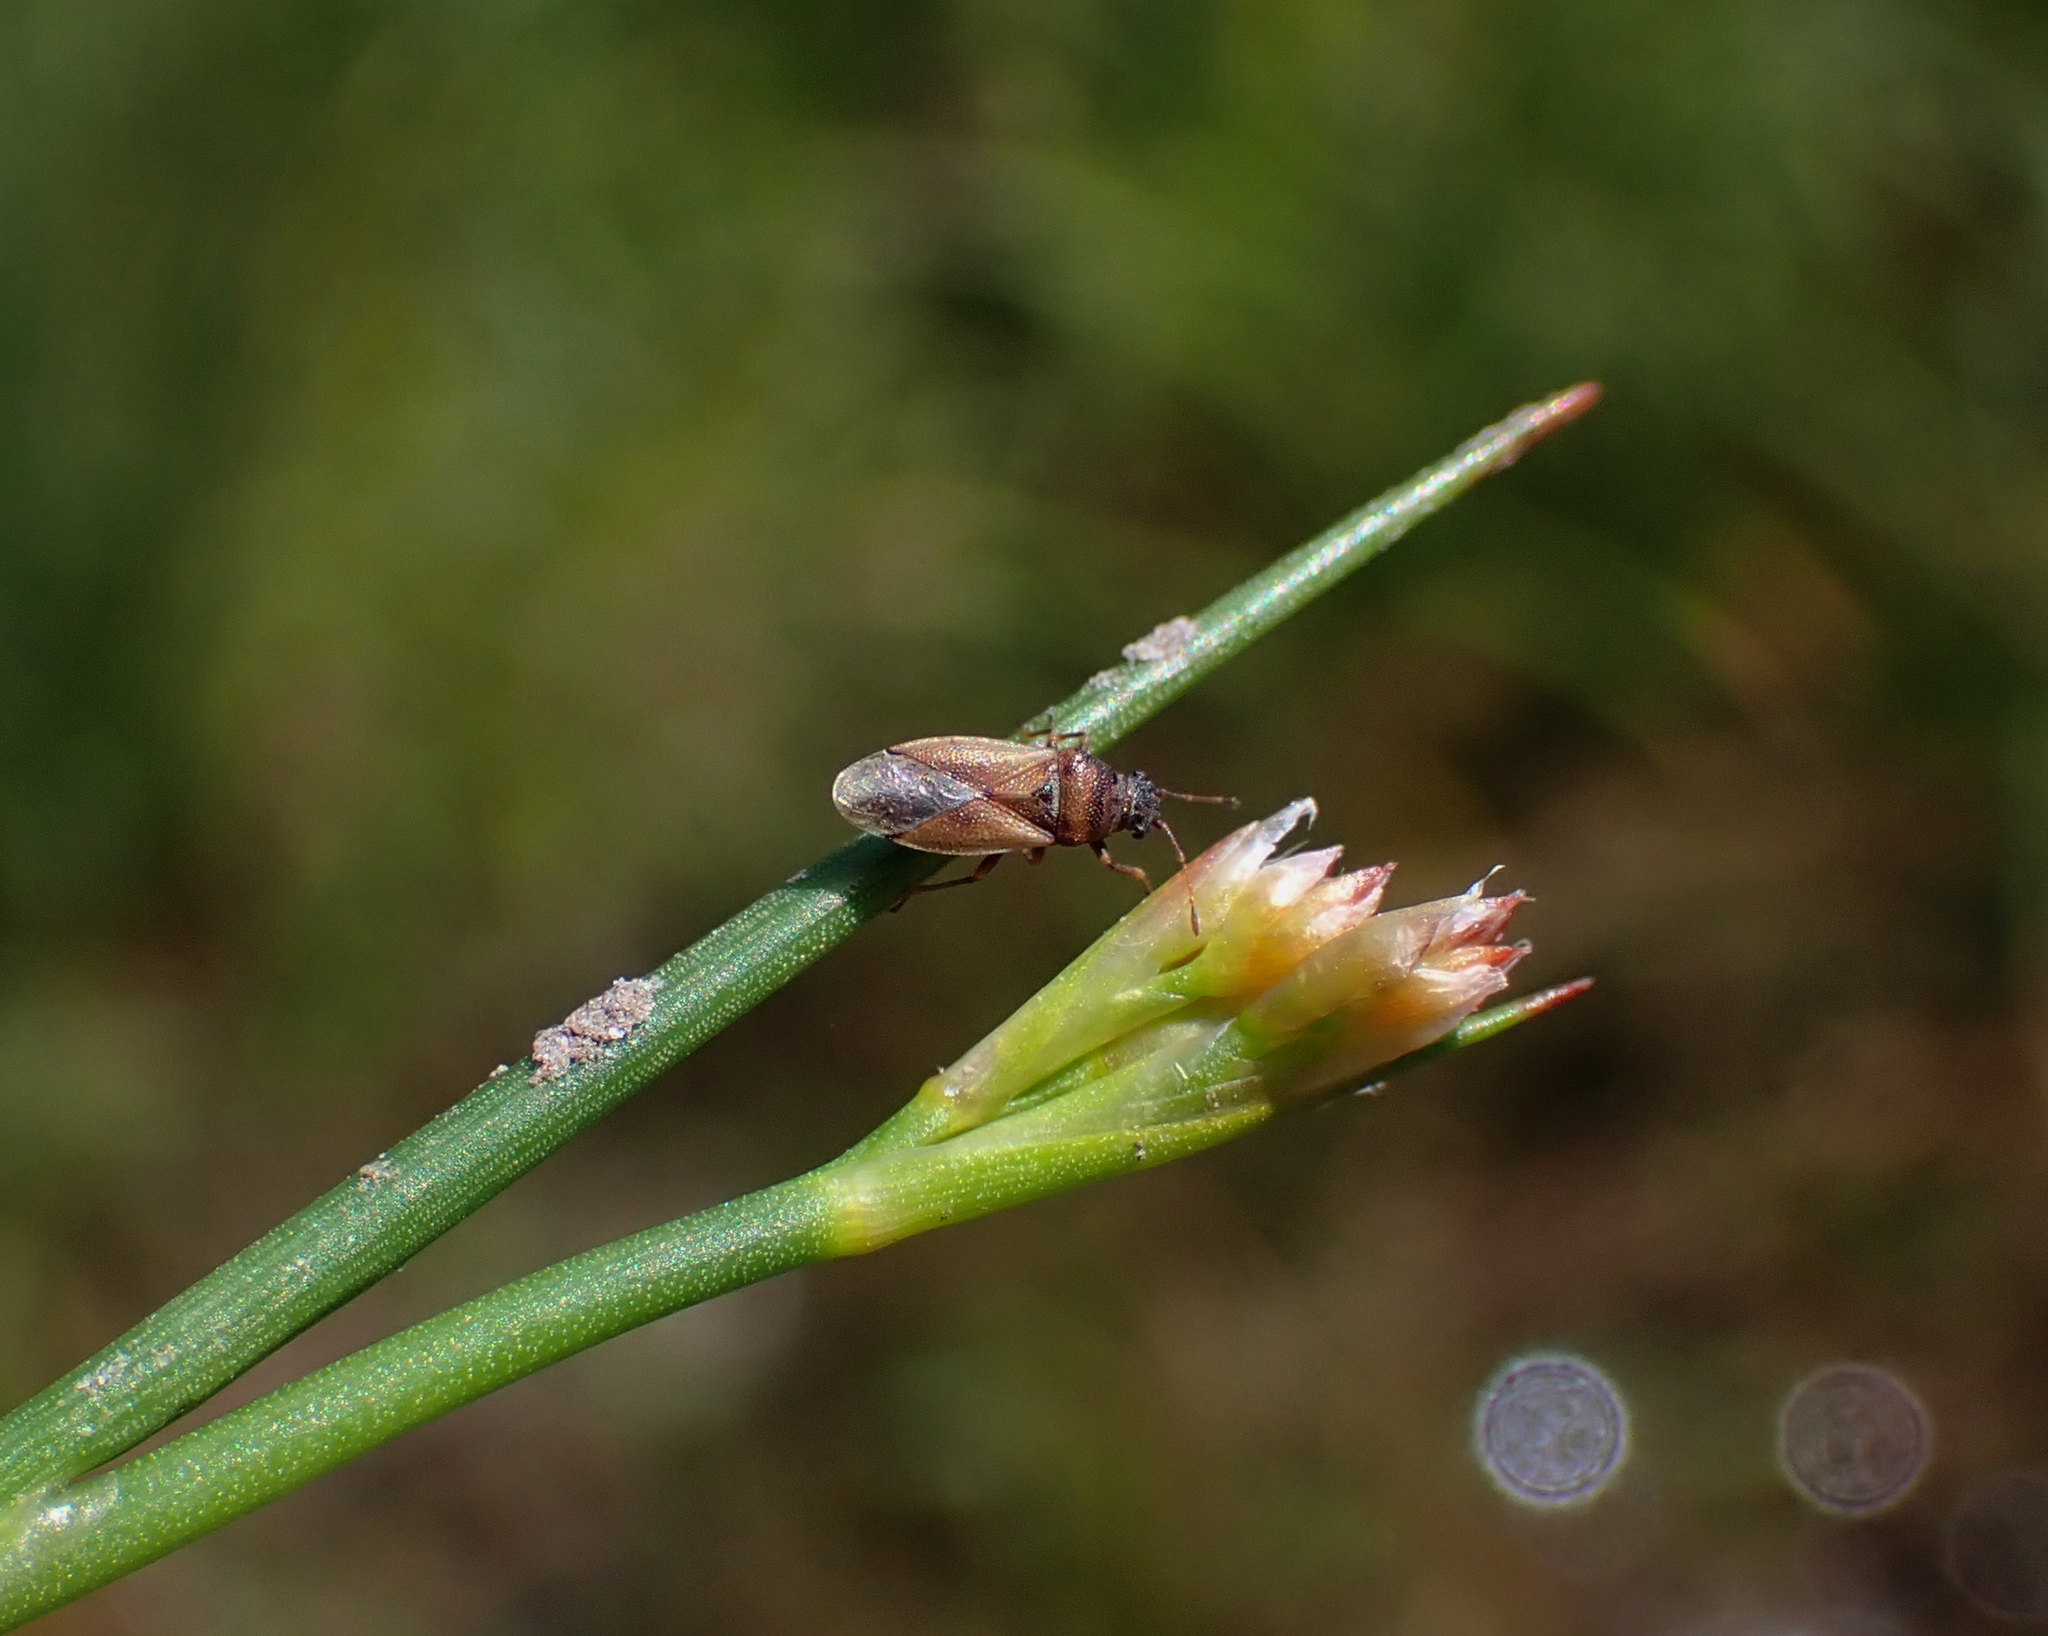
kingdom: Animalia
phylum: Arthropoda
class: Insecta
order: Hemiptera
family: Cymidae
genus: Cymus
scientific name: Cymus melanocephalus
